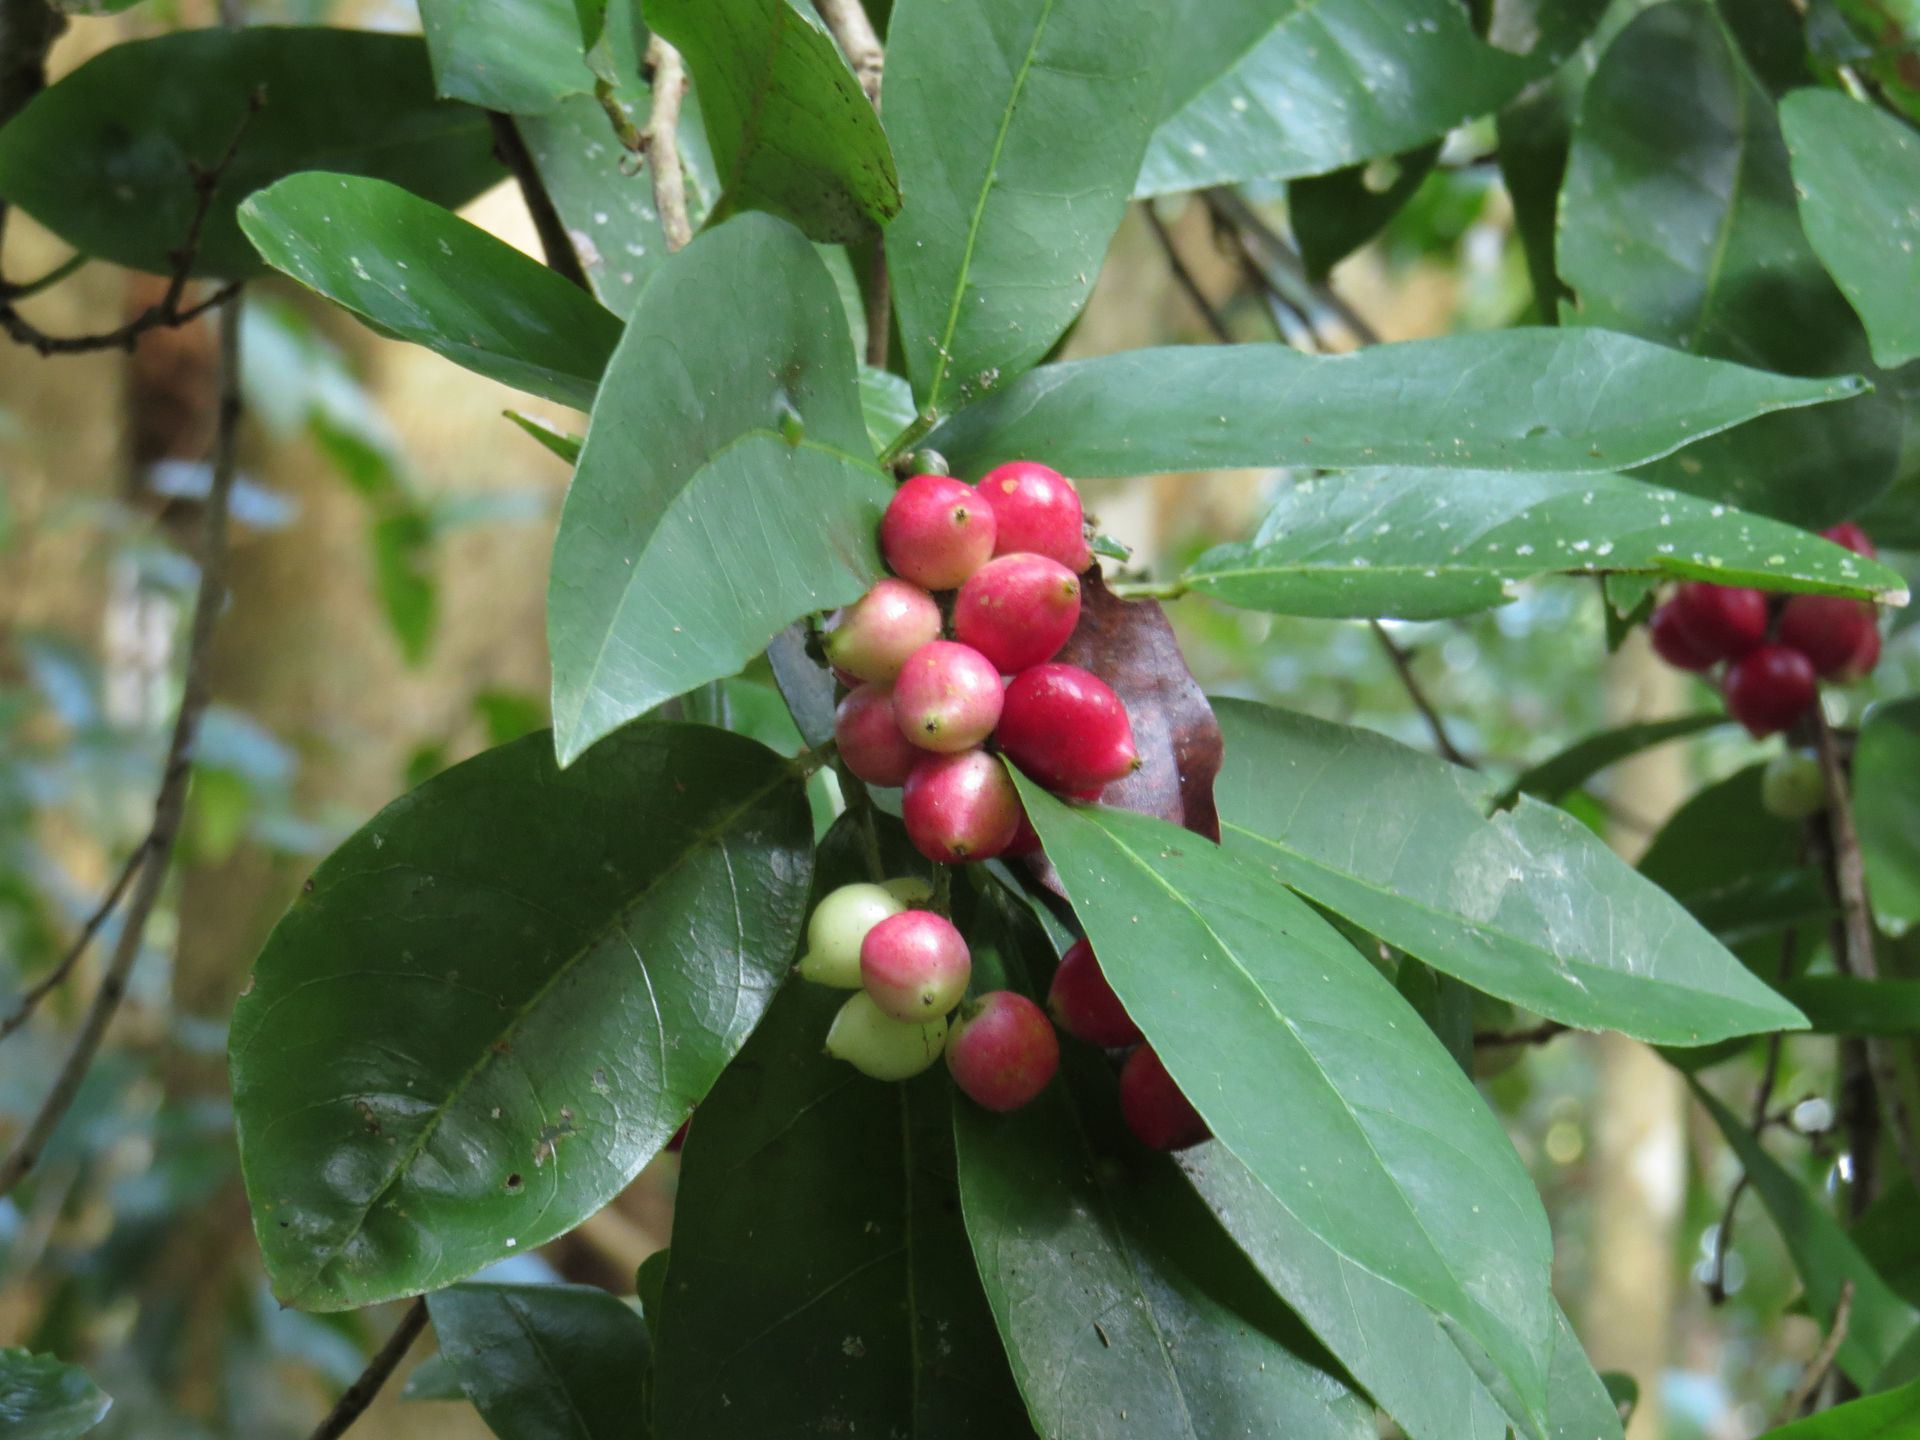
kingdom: Plantae
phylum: Tracheophyta
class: Magnoliopsida
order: Malpighiales
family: Phyllanthaceae
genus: Antidesma
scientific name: Antidesma bunius
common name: Chinese-laurel
